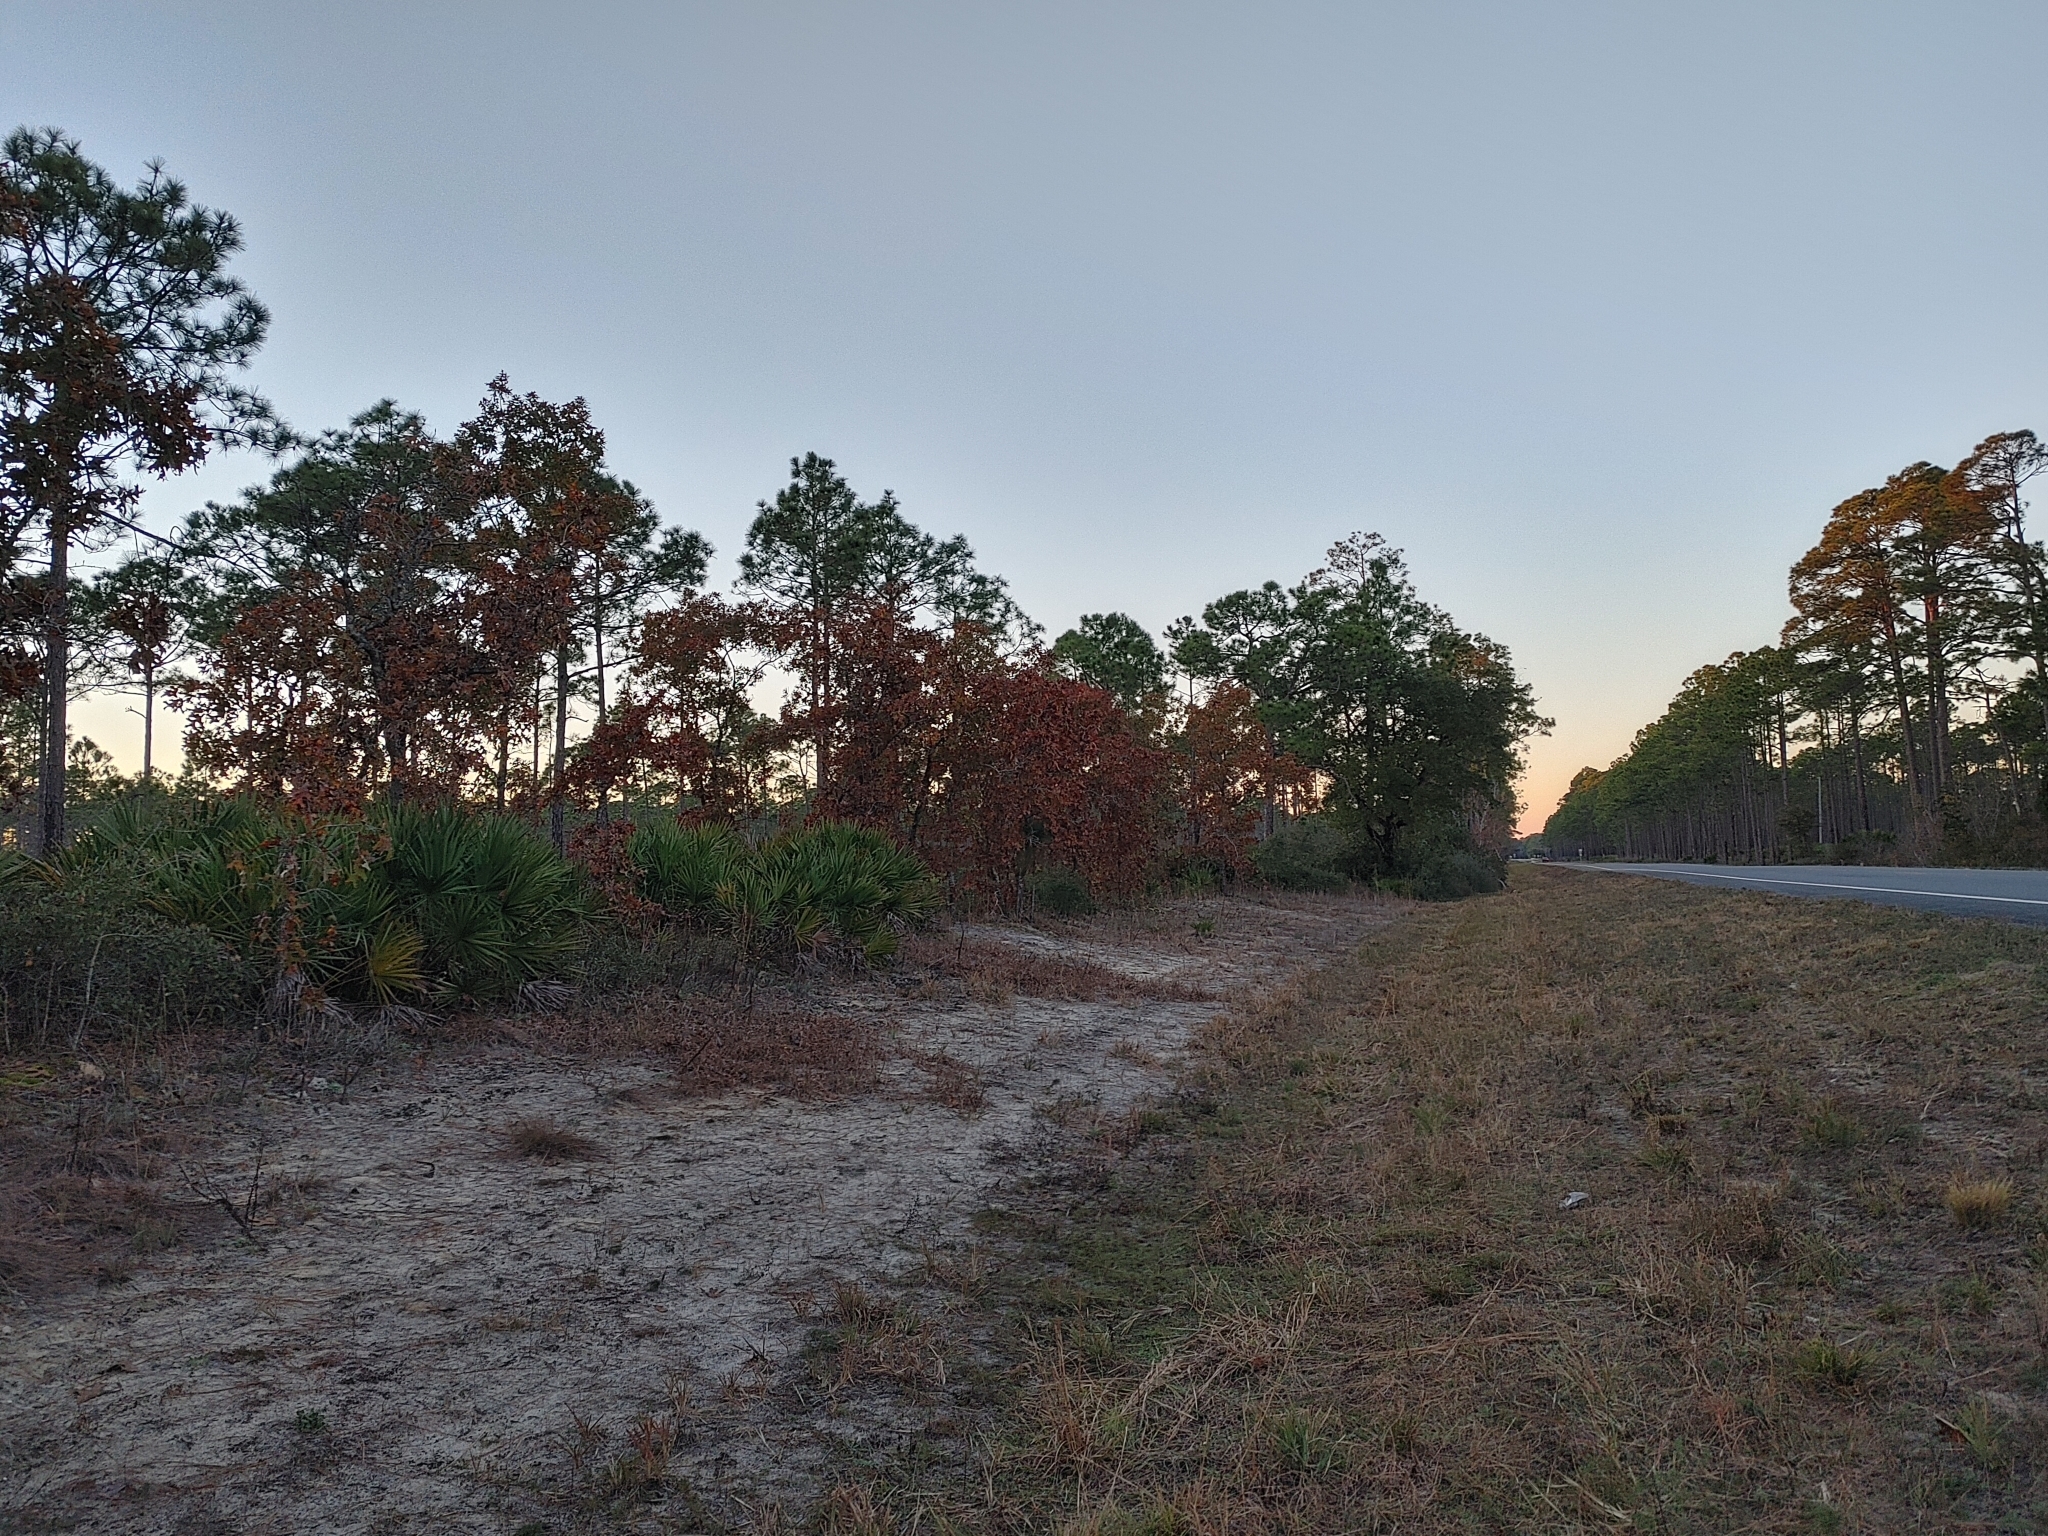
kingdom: Plantae
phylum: Tracheophyta
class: Liliopsida
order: Arecales
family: Arecaceae
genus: Serenoa
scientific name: Serenoa repens
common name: Saw-palmetto
